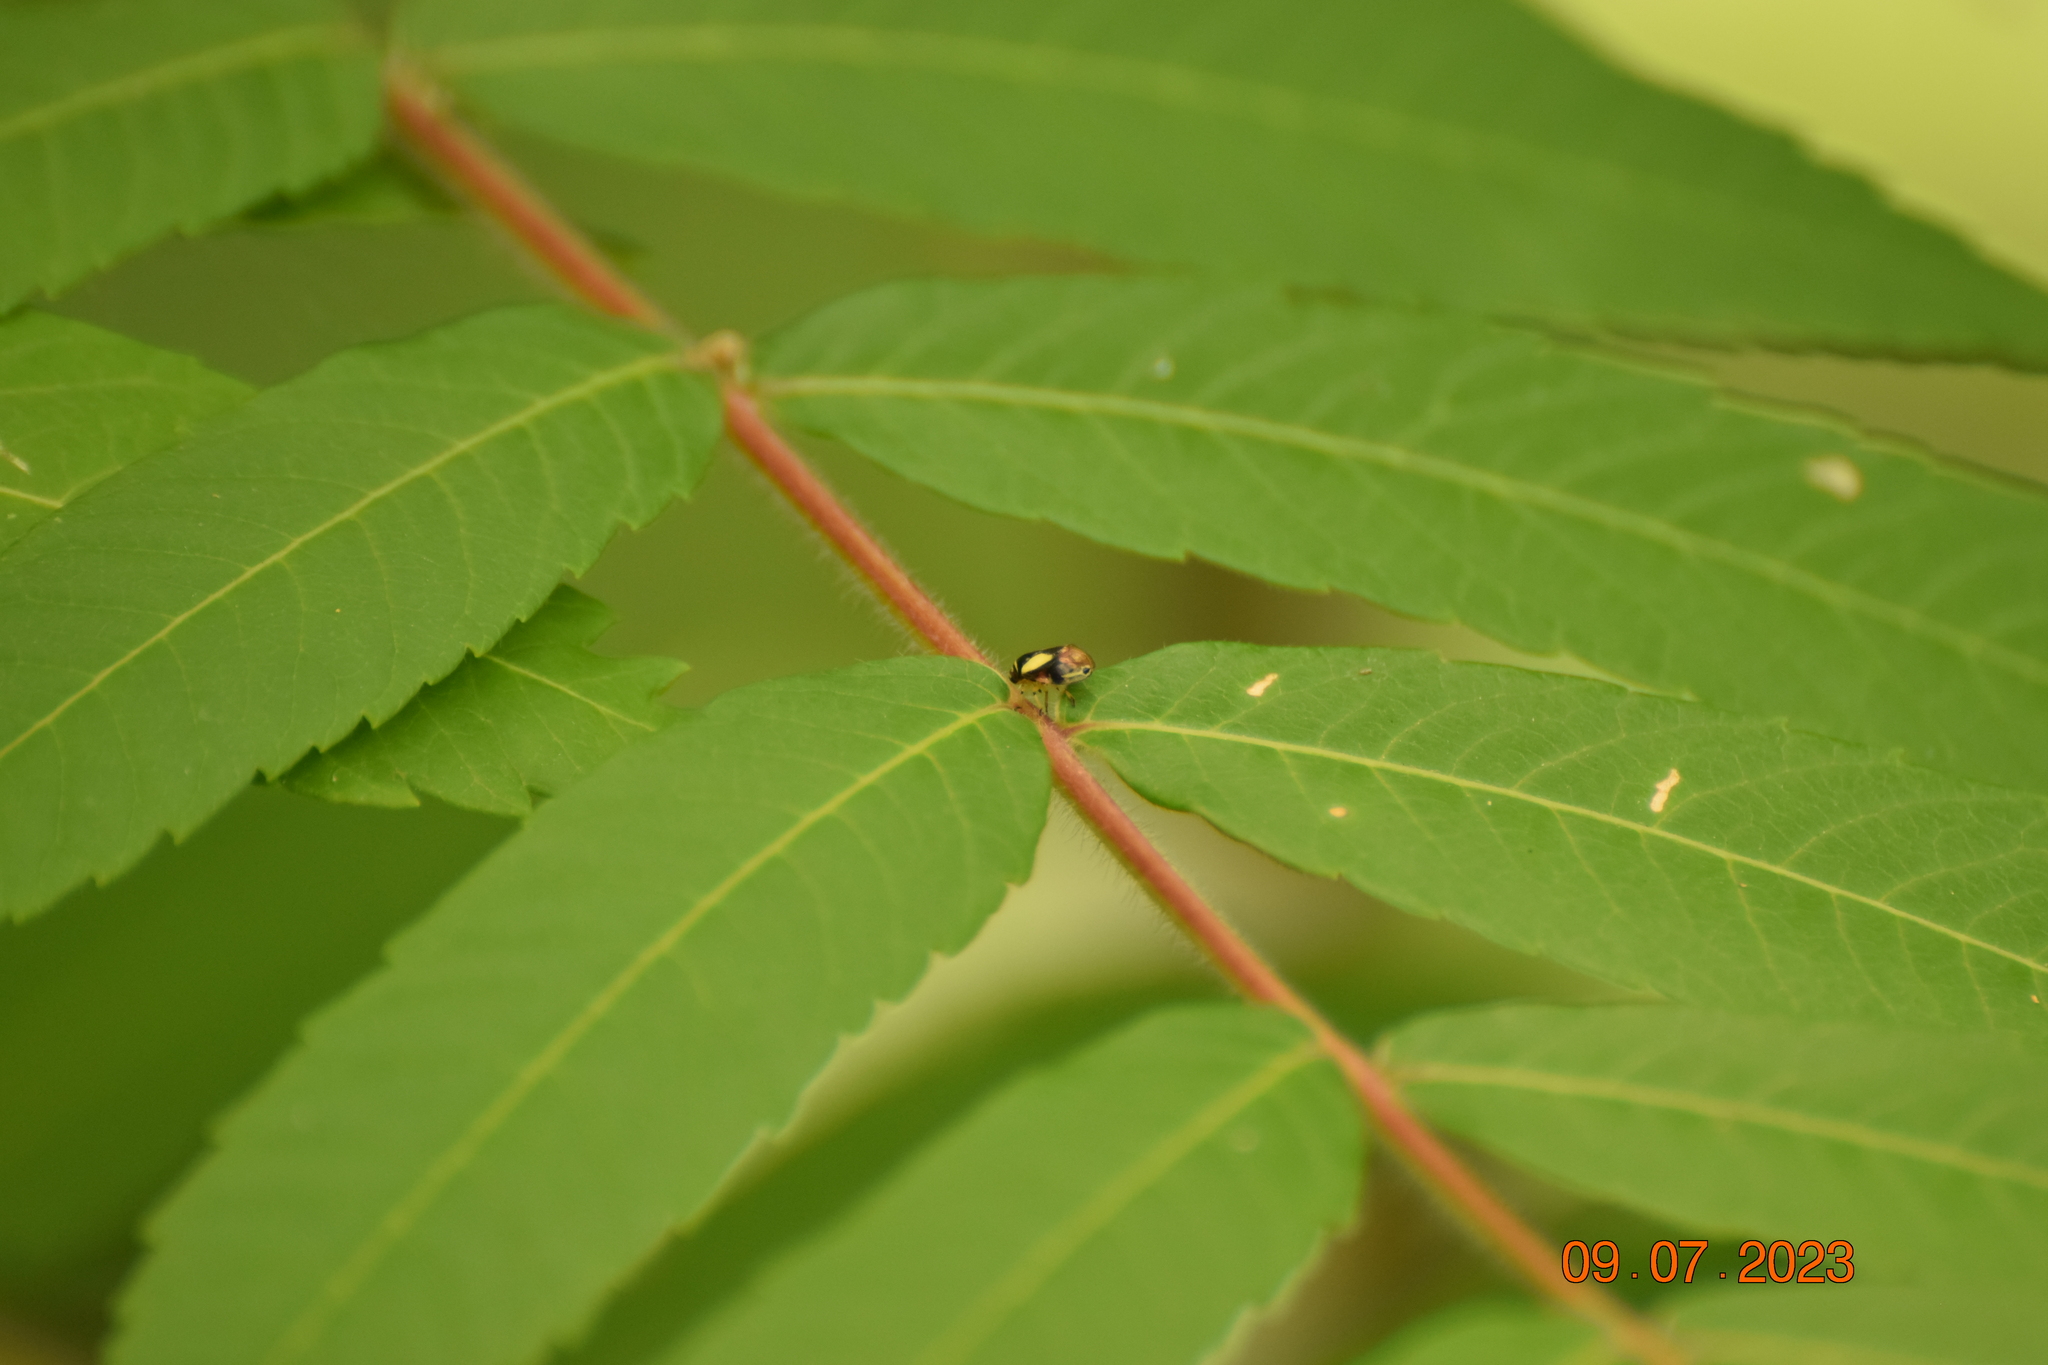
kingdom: Animalia
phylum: Arthropoda
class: Insecta
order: Hemiptera
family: Clastopteridae
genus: Clastoptera
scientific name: Clastoptera proteus
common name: Dogwood spittlebug
